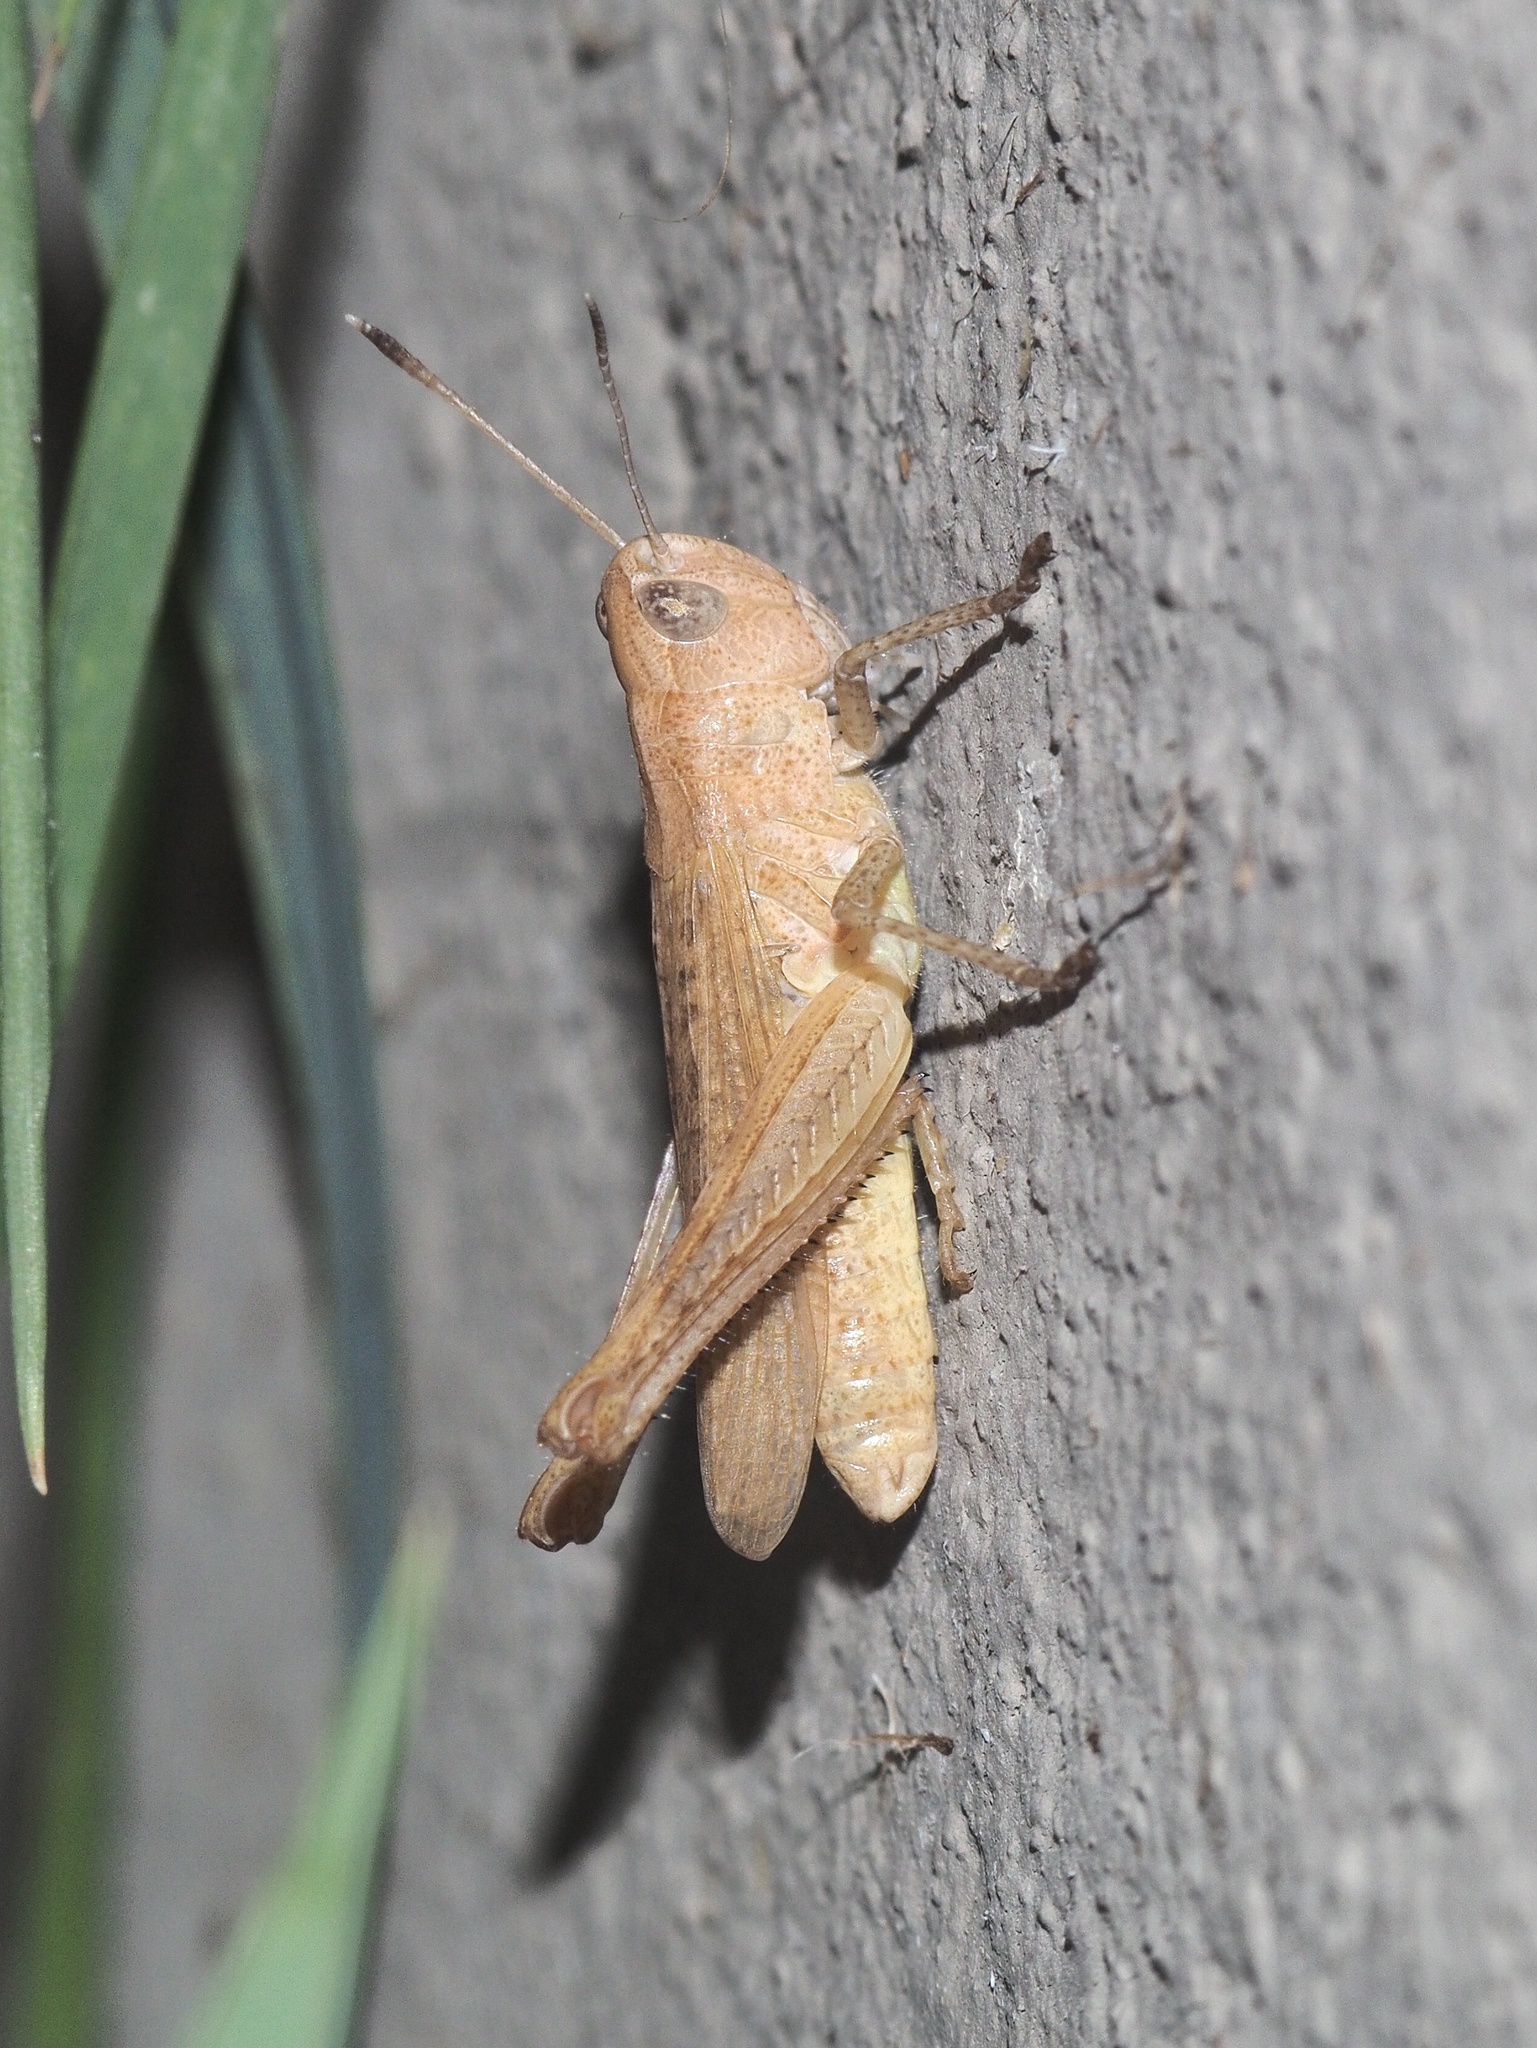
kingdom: Animalia
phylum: Arthropoda
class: Insecta
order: Orthoptera
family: Acrididae
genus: Gomphocerippus
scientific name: Gomphocerippus rufus
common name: Rufous grasshopper
